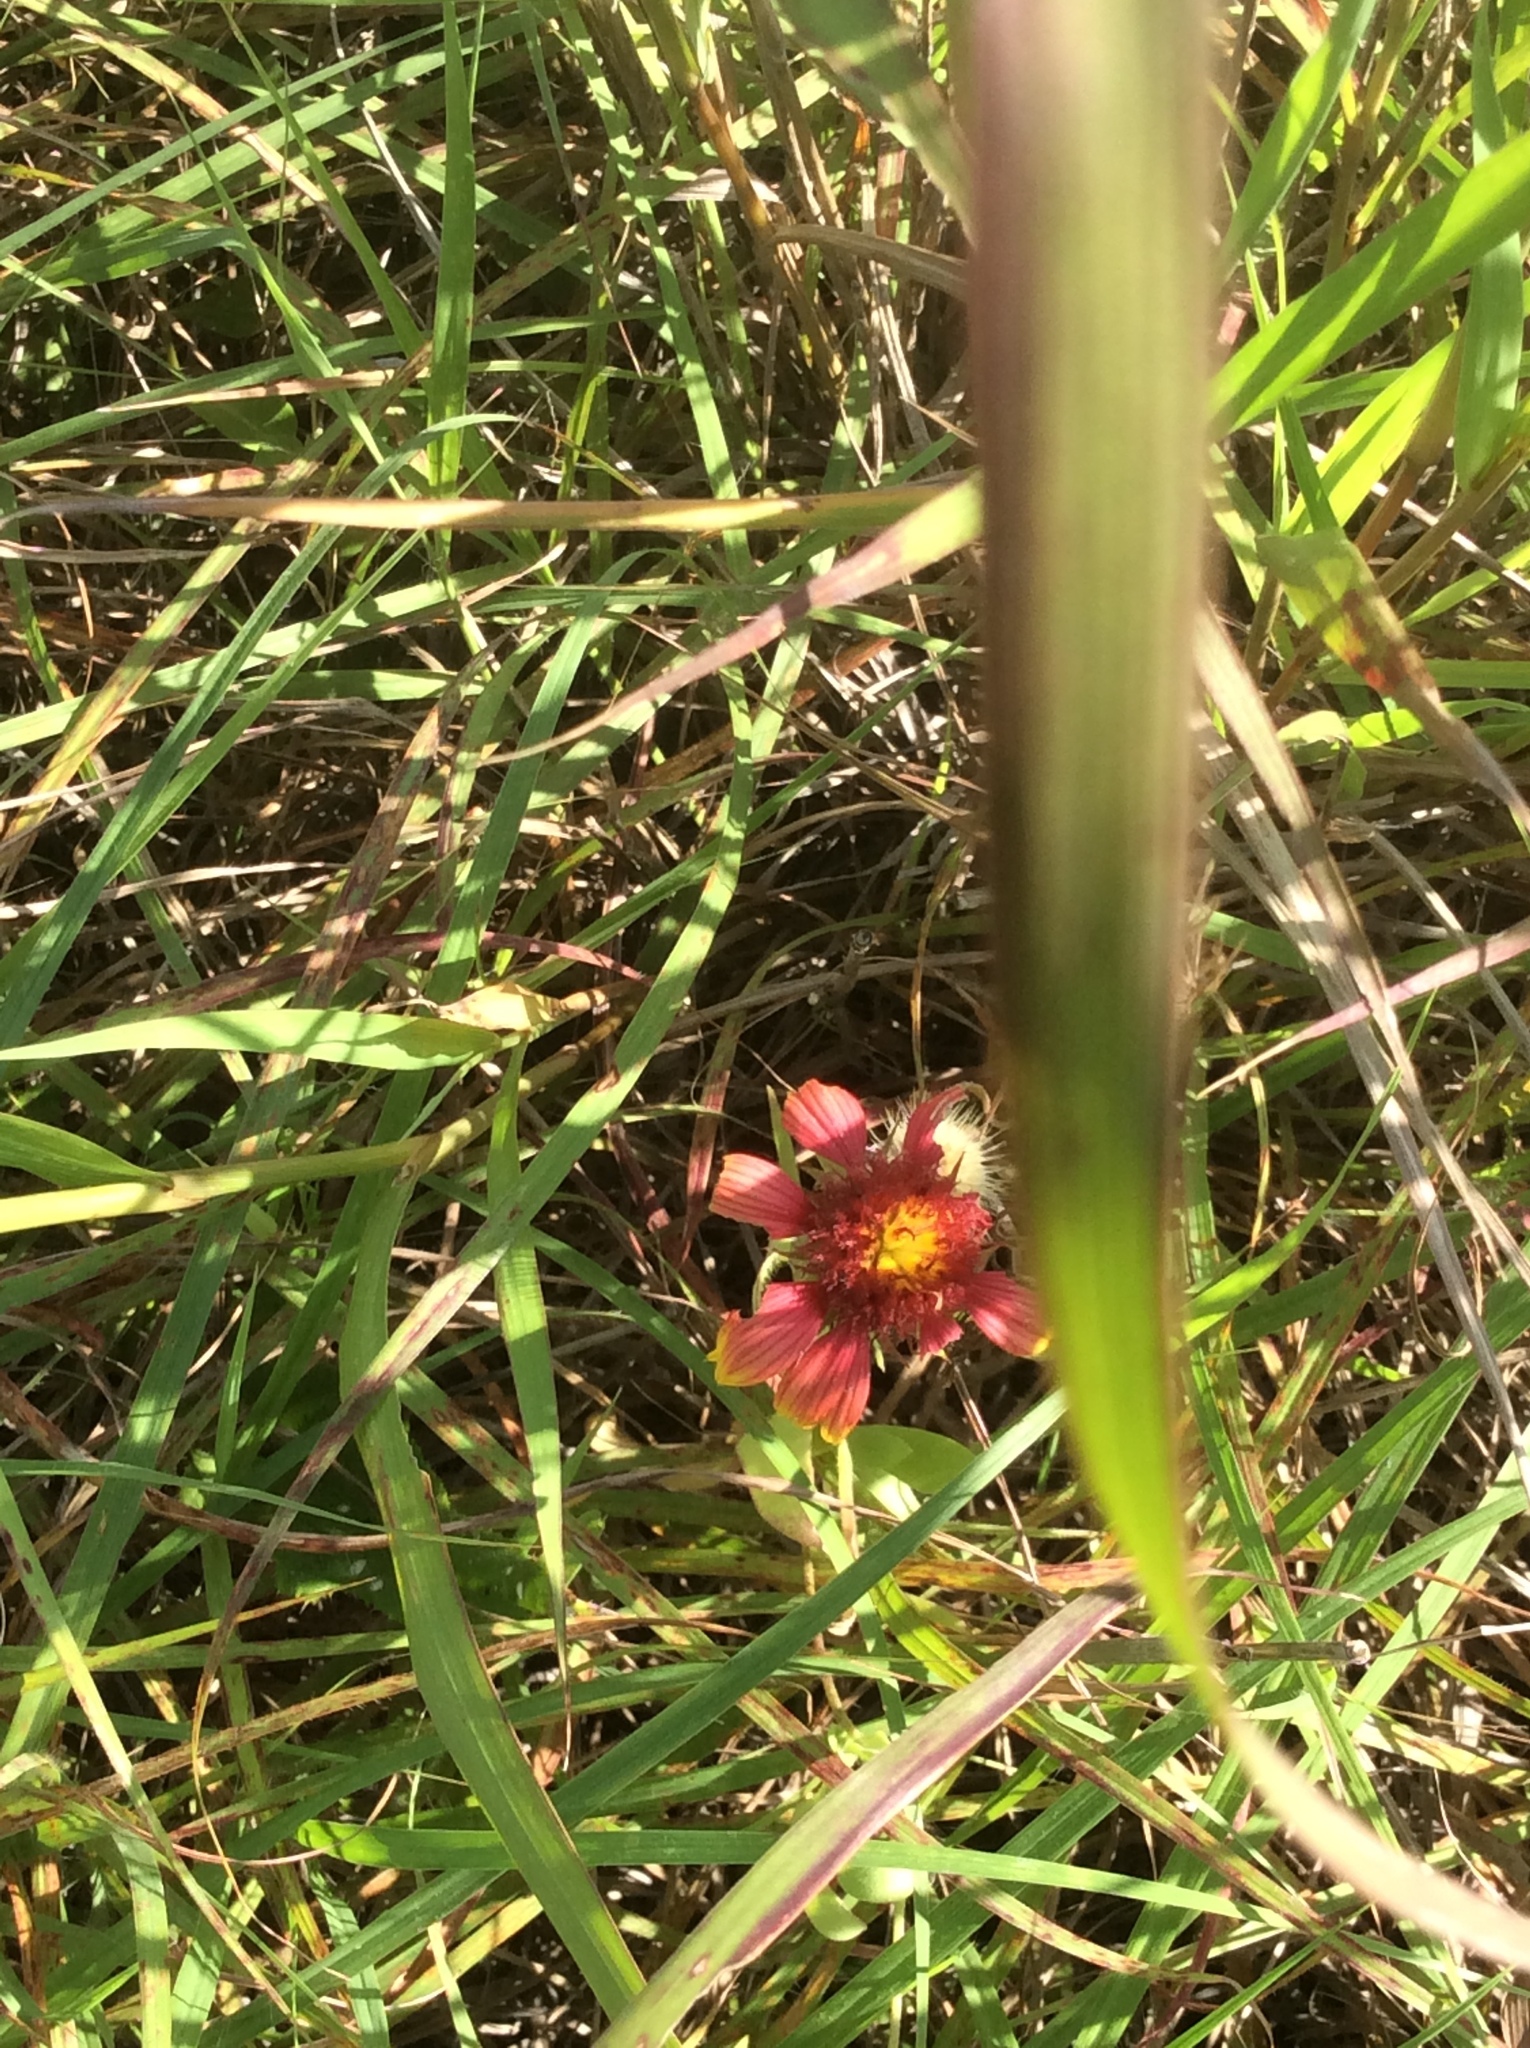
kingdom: Plantae
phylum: Tracheophyta
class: Magnoliopsida
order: Asterales
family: Asteraceae
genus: Gaillardia
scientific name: Gaillardia pulchella
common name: Firewheel
